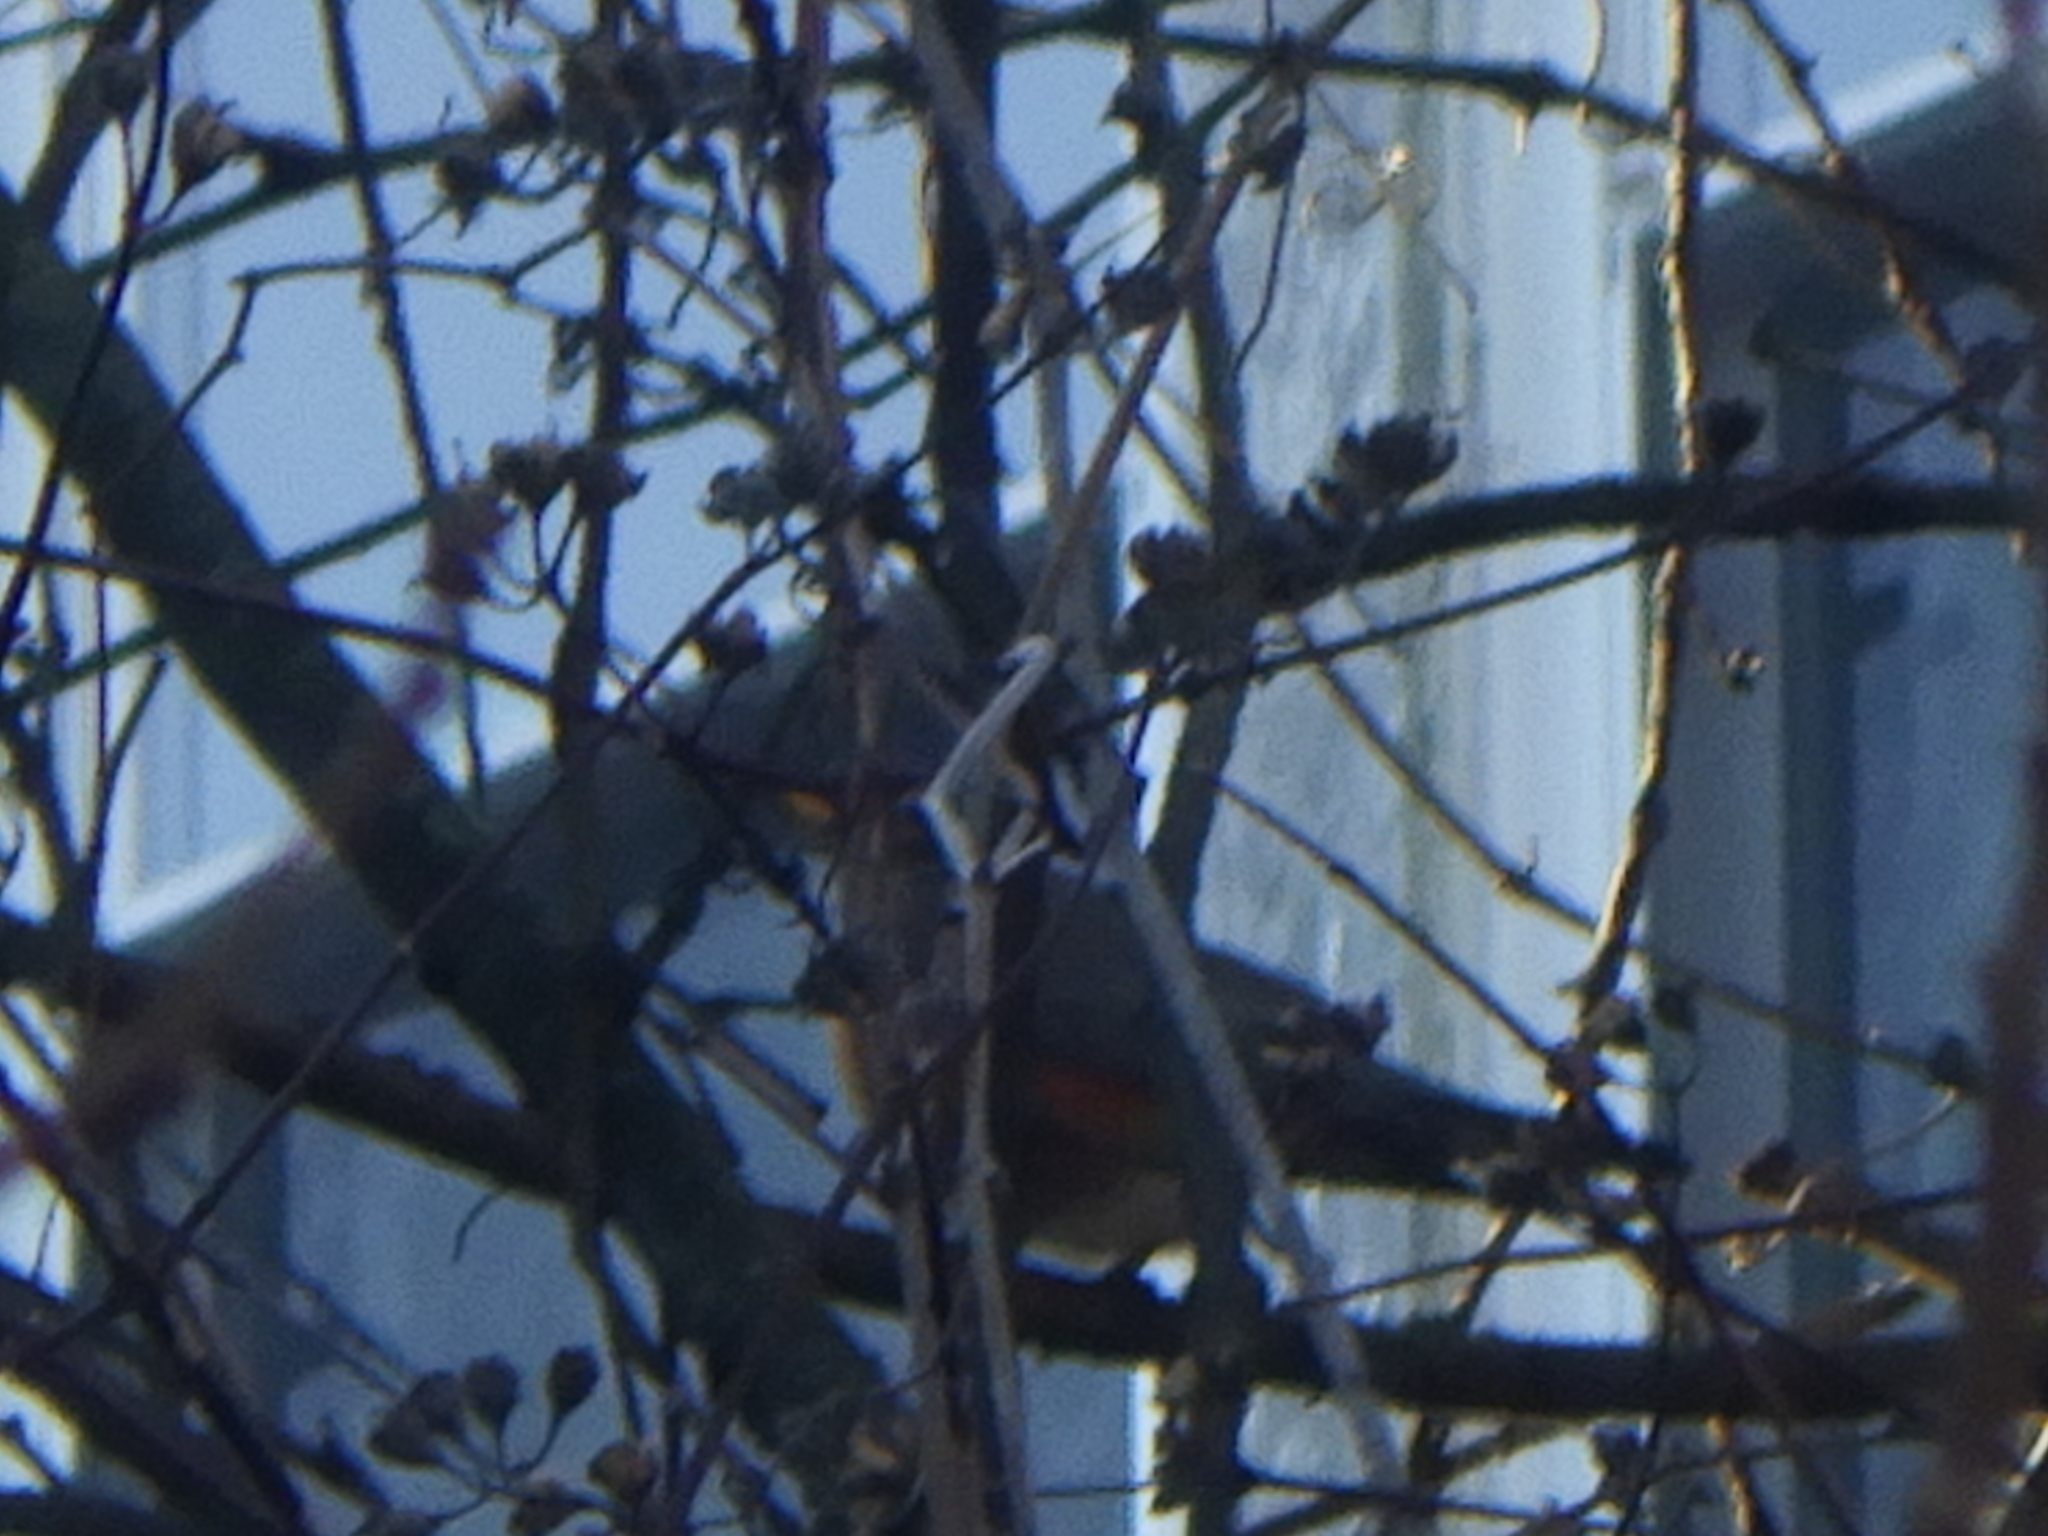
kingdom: Animalia
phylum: Chordata
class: Aves
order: Passeriformes
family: Turdidae
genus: Turdus
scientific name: Turdus migratorius
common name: American robin
